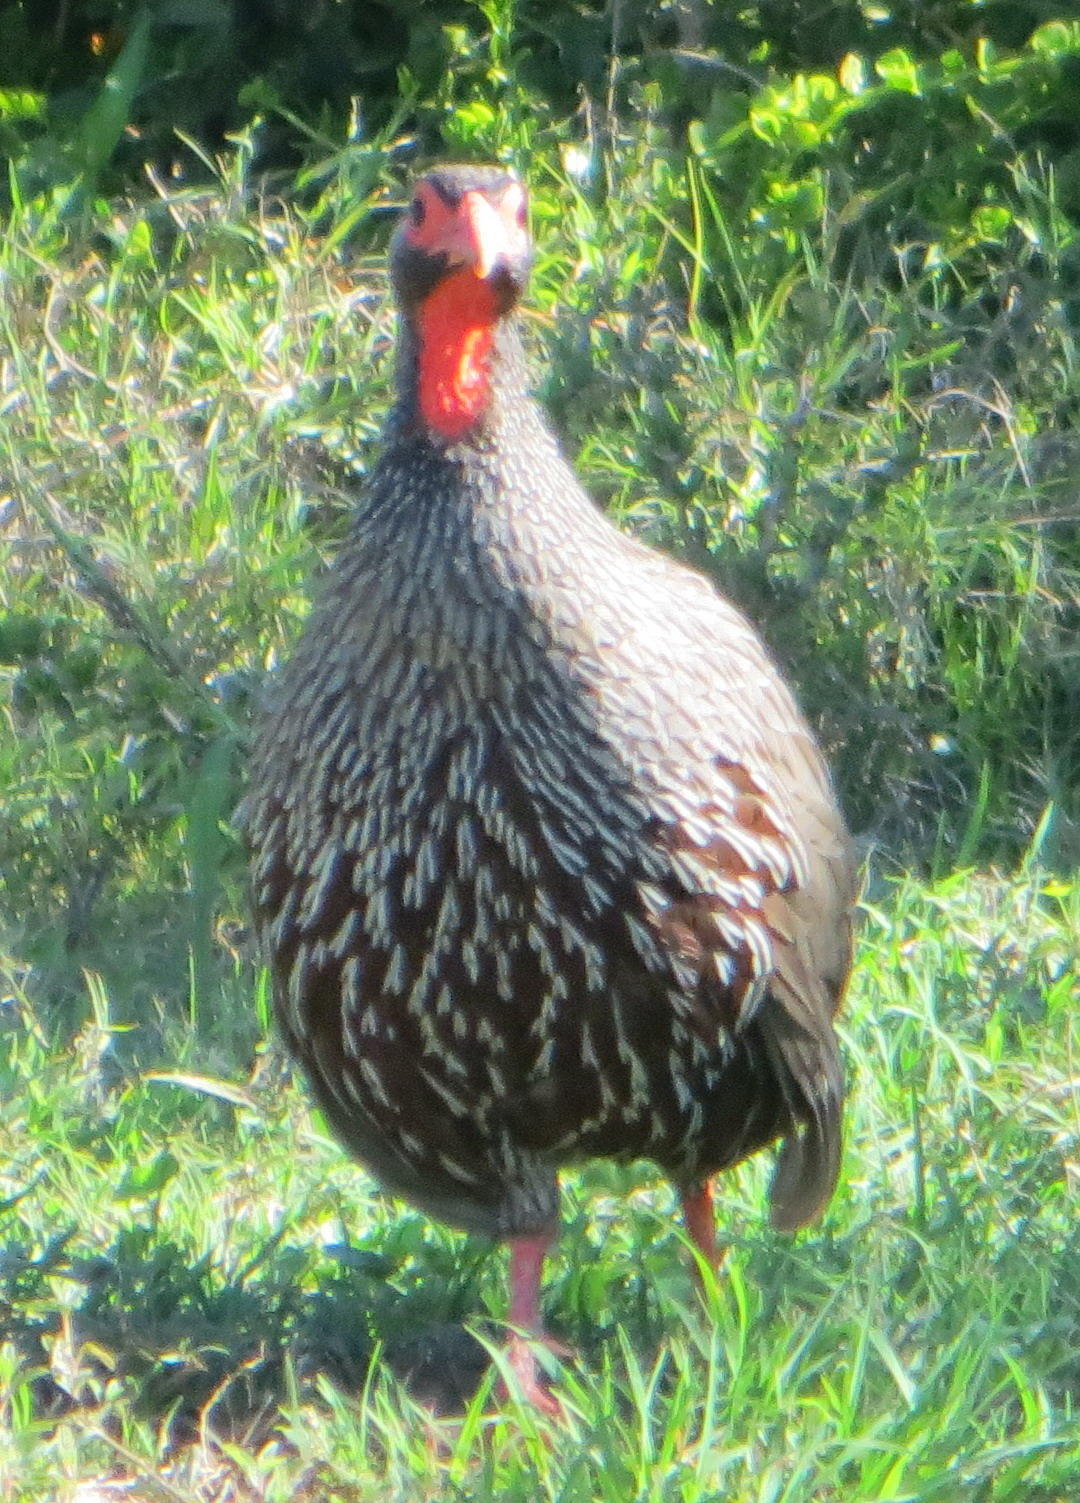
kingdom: Animalia
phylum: Chordata
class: Aves
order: Galliformes
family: Phasianidae
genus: Pternistis
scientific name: Pternistis afer
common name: Red-necked spurfowl
